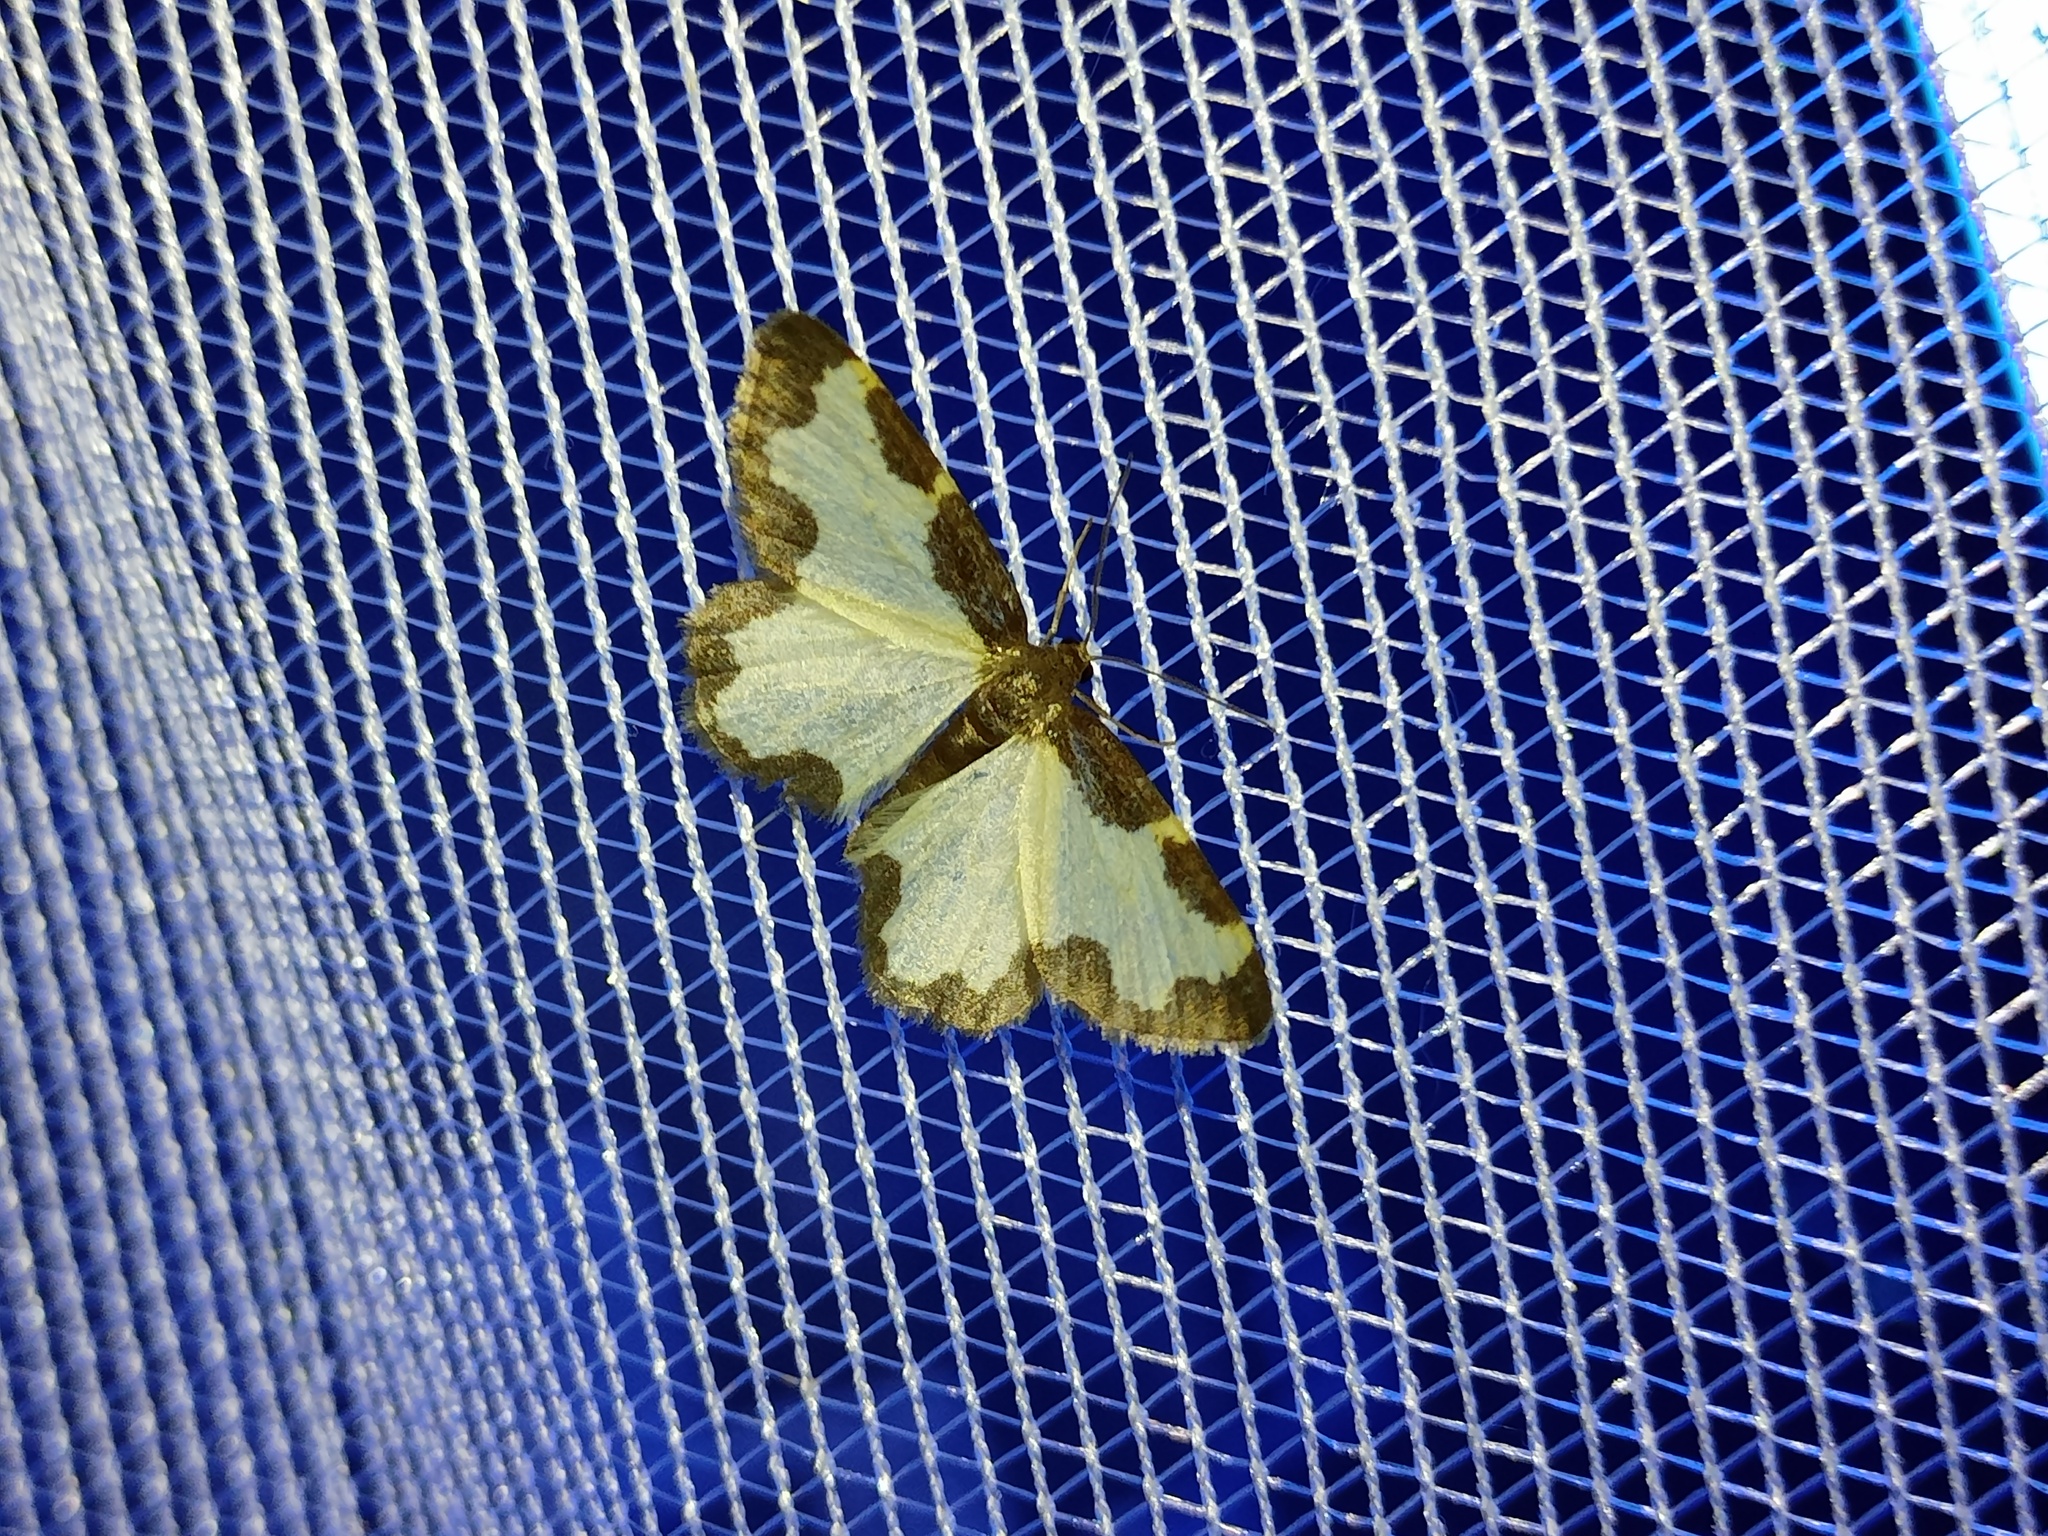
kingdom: Animalia
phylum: Arthropoda
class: Insecta
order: Lepidoptera
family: Geometridae
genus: Lomaspilis
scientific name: Lomaspilis marginata
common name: Clouded border
